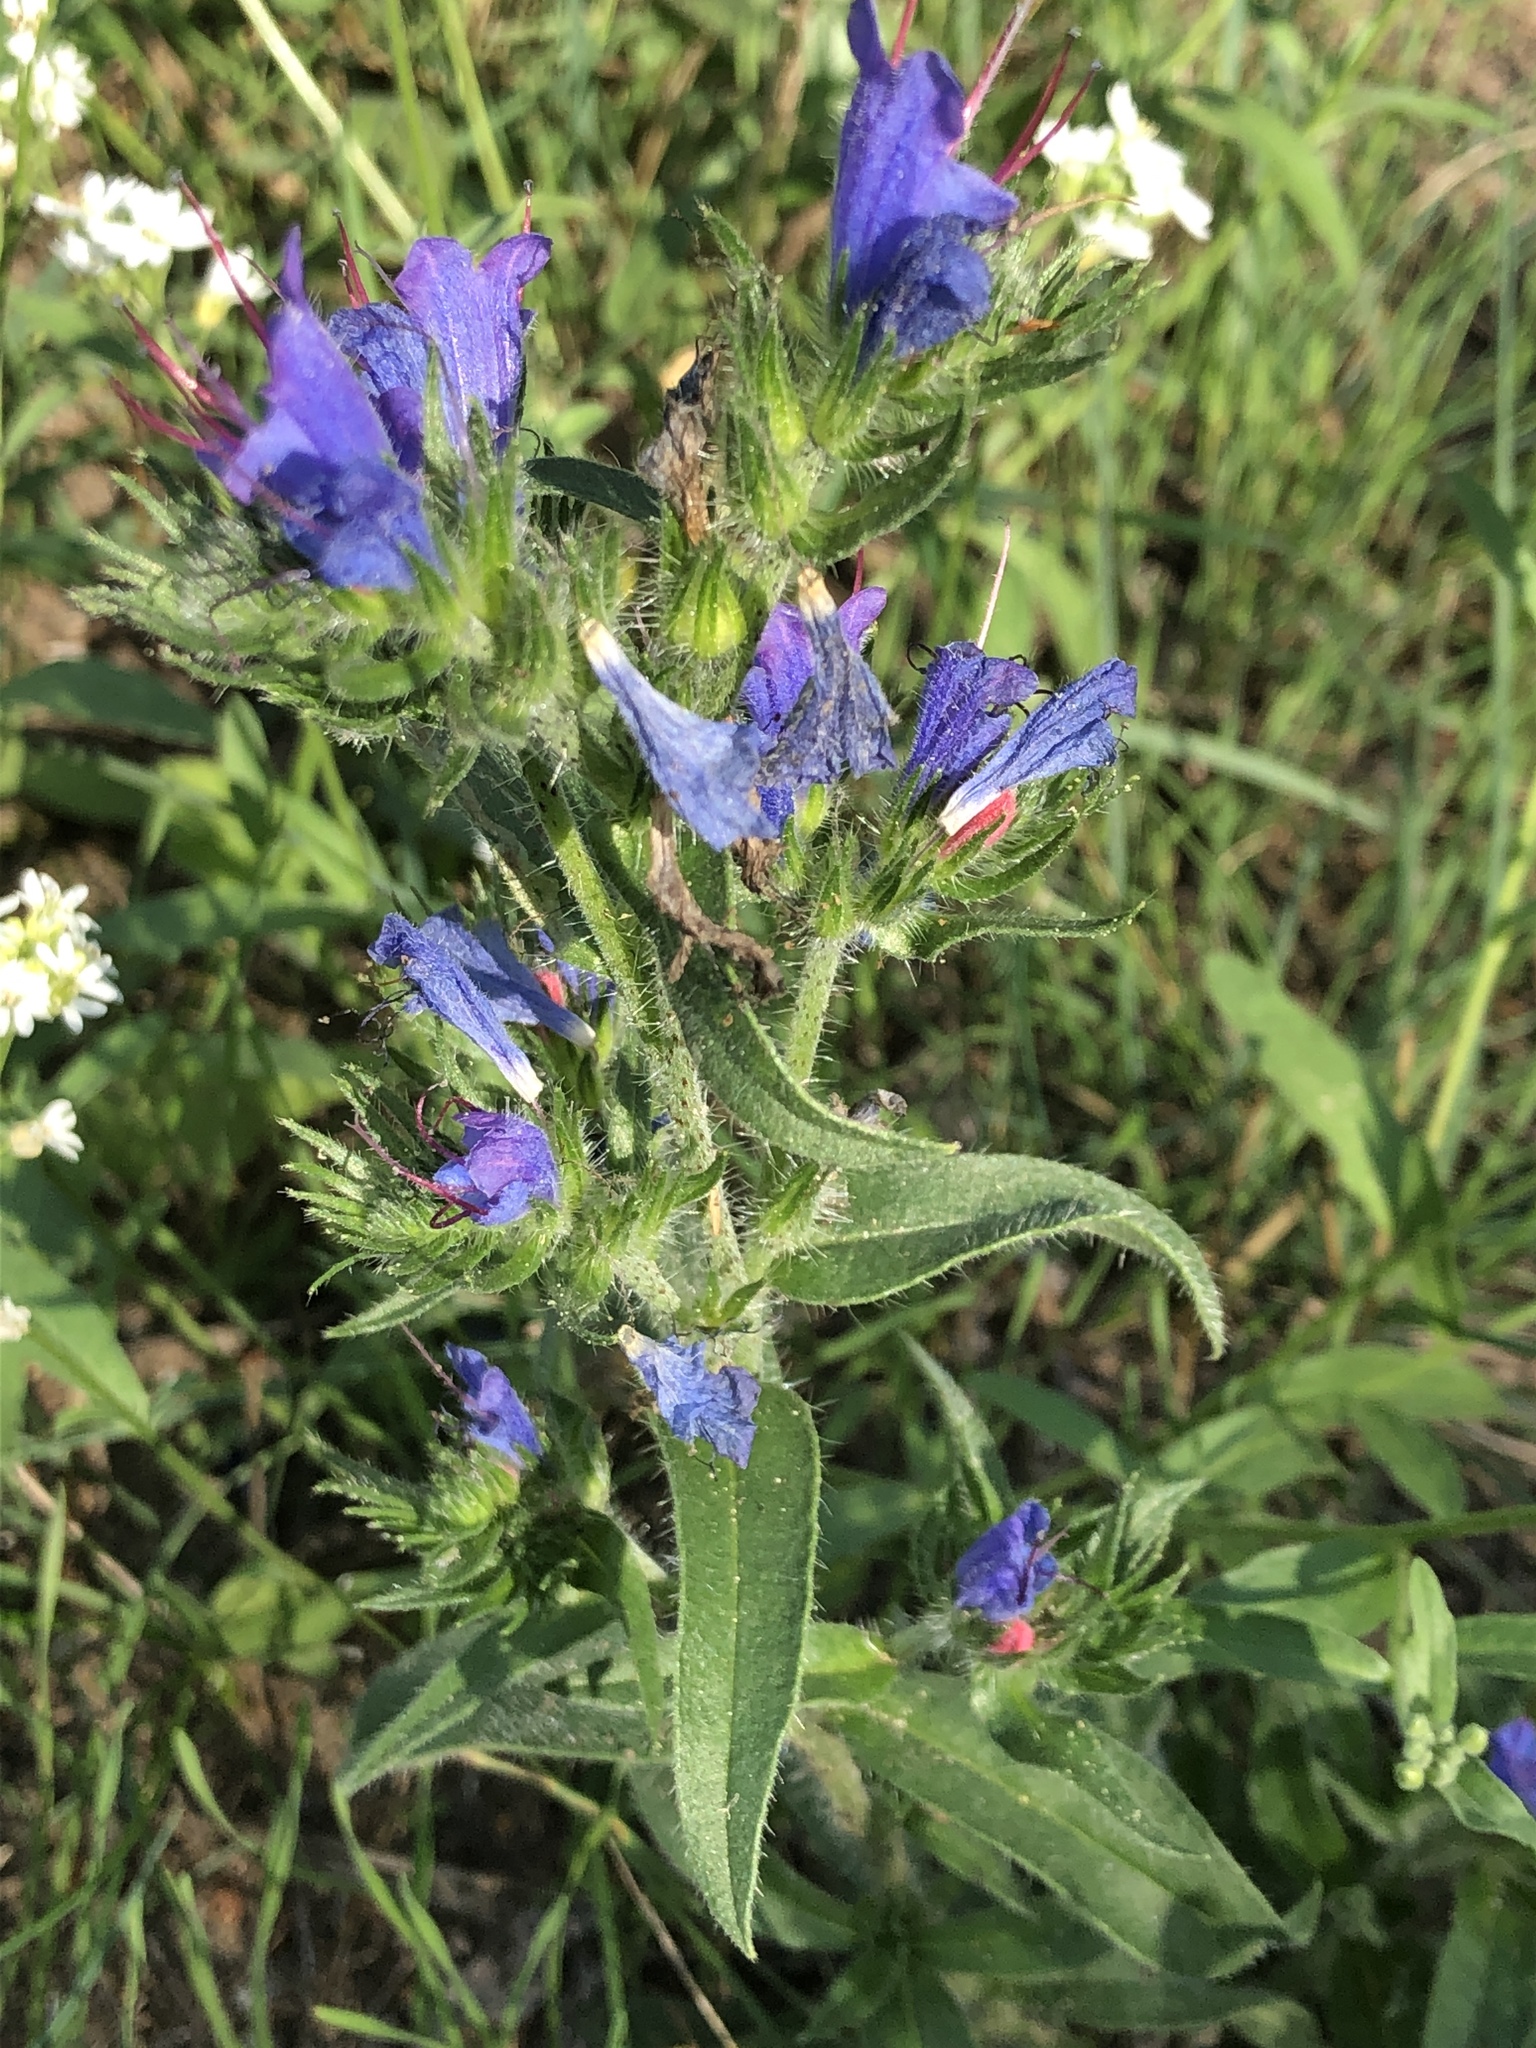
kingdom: Plantae
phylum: Tracheophyta
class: Magnoliopsida
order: Boraginales
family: Boraginaceae
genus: Echium
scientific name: Echium vulgare
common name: Common viper's bugloss
